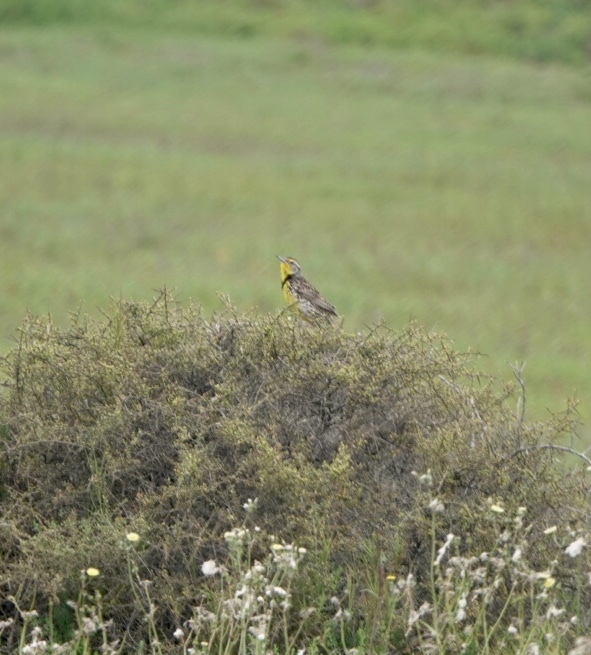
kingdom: Animalia
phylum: Chordata
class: Aves
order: Passeriformes
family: Icteridae
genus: Sturnella
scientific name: Sturnella neglecta
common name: Western meadowlark
